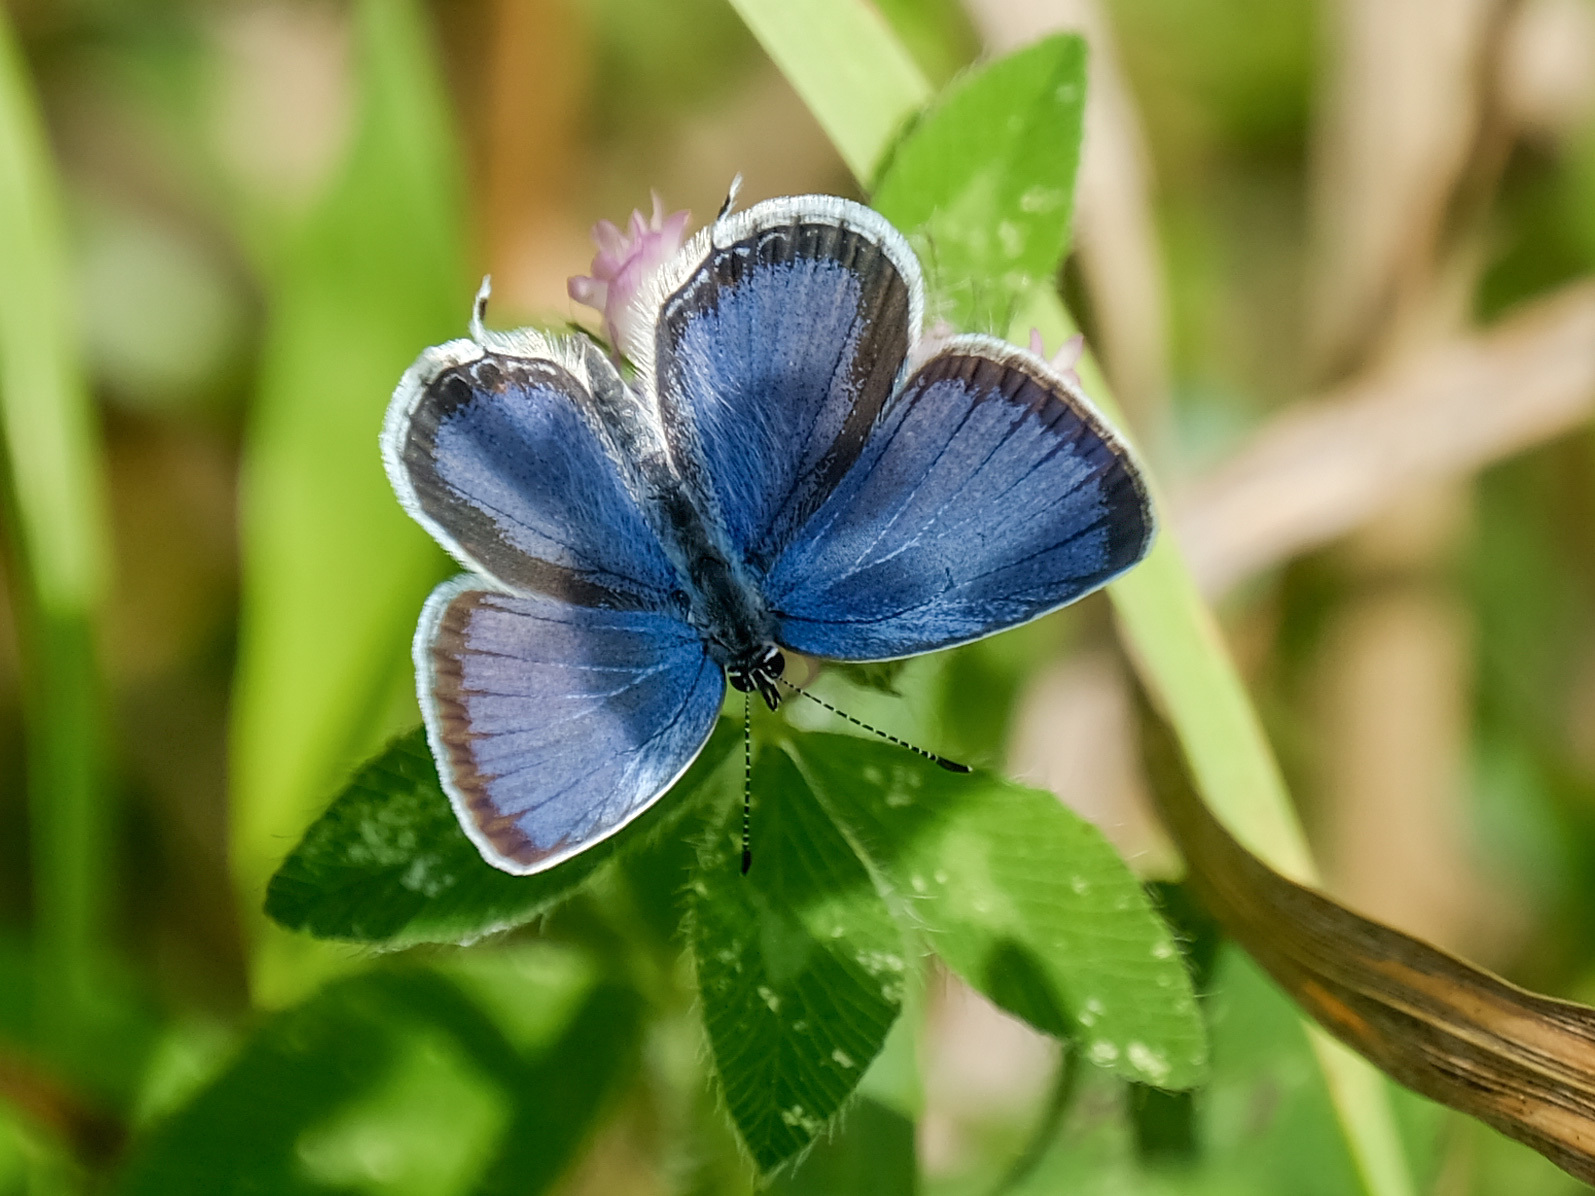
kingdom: Animalia
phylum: Arthropoda
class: Insecta
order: Lepidoptera
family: Lycaenidae
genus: Elkalyce
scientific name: Elkalyce comyntas
